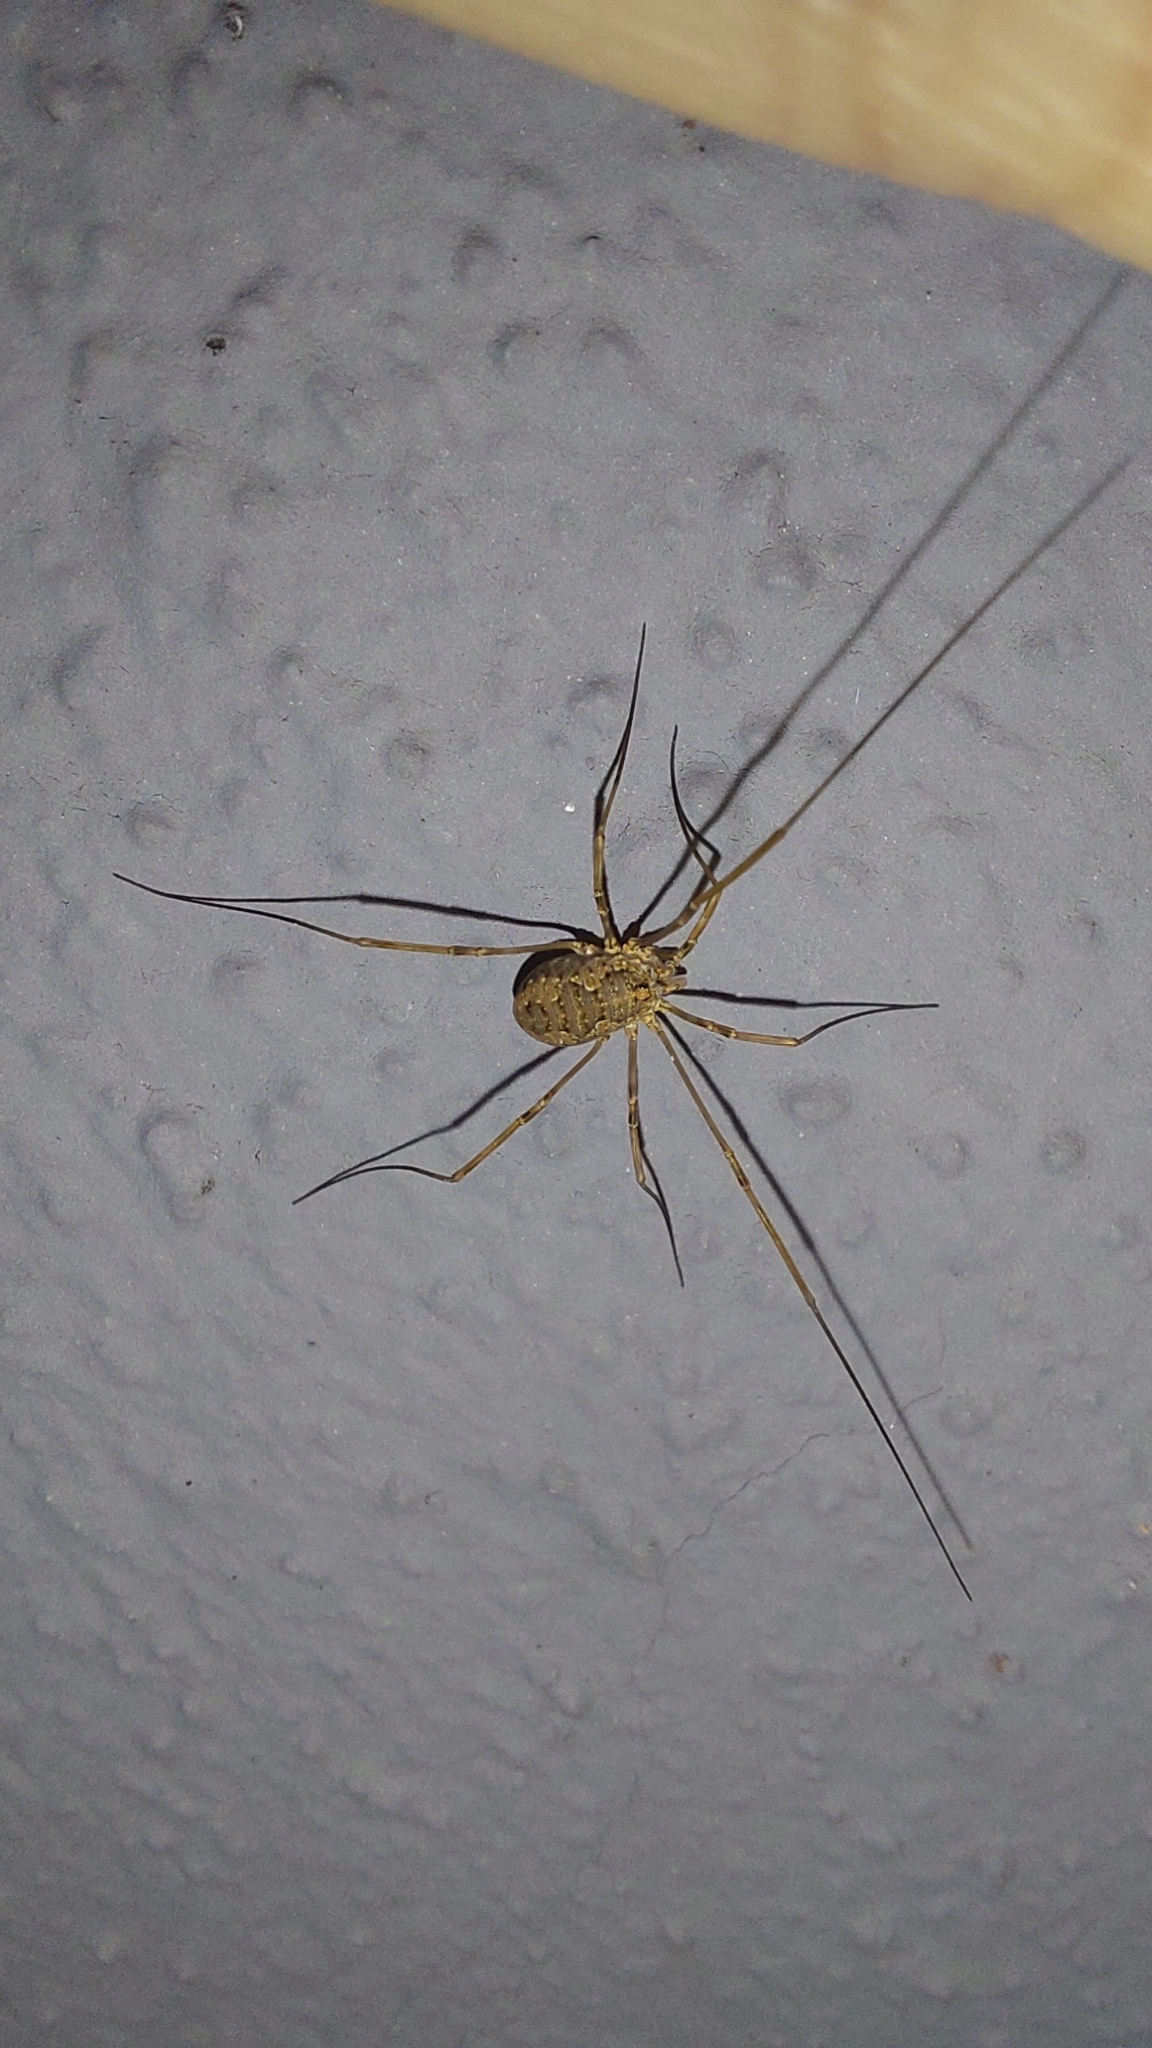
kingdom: Animalia
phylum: Arthropoda
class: Arachnida
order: Opiliones
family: Phalangiidae
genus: Phalangium
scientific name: Phalangium opilio
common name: Daddy longleg
